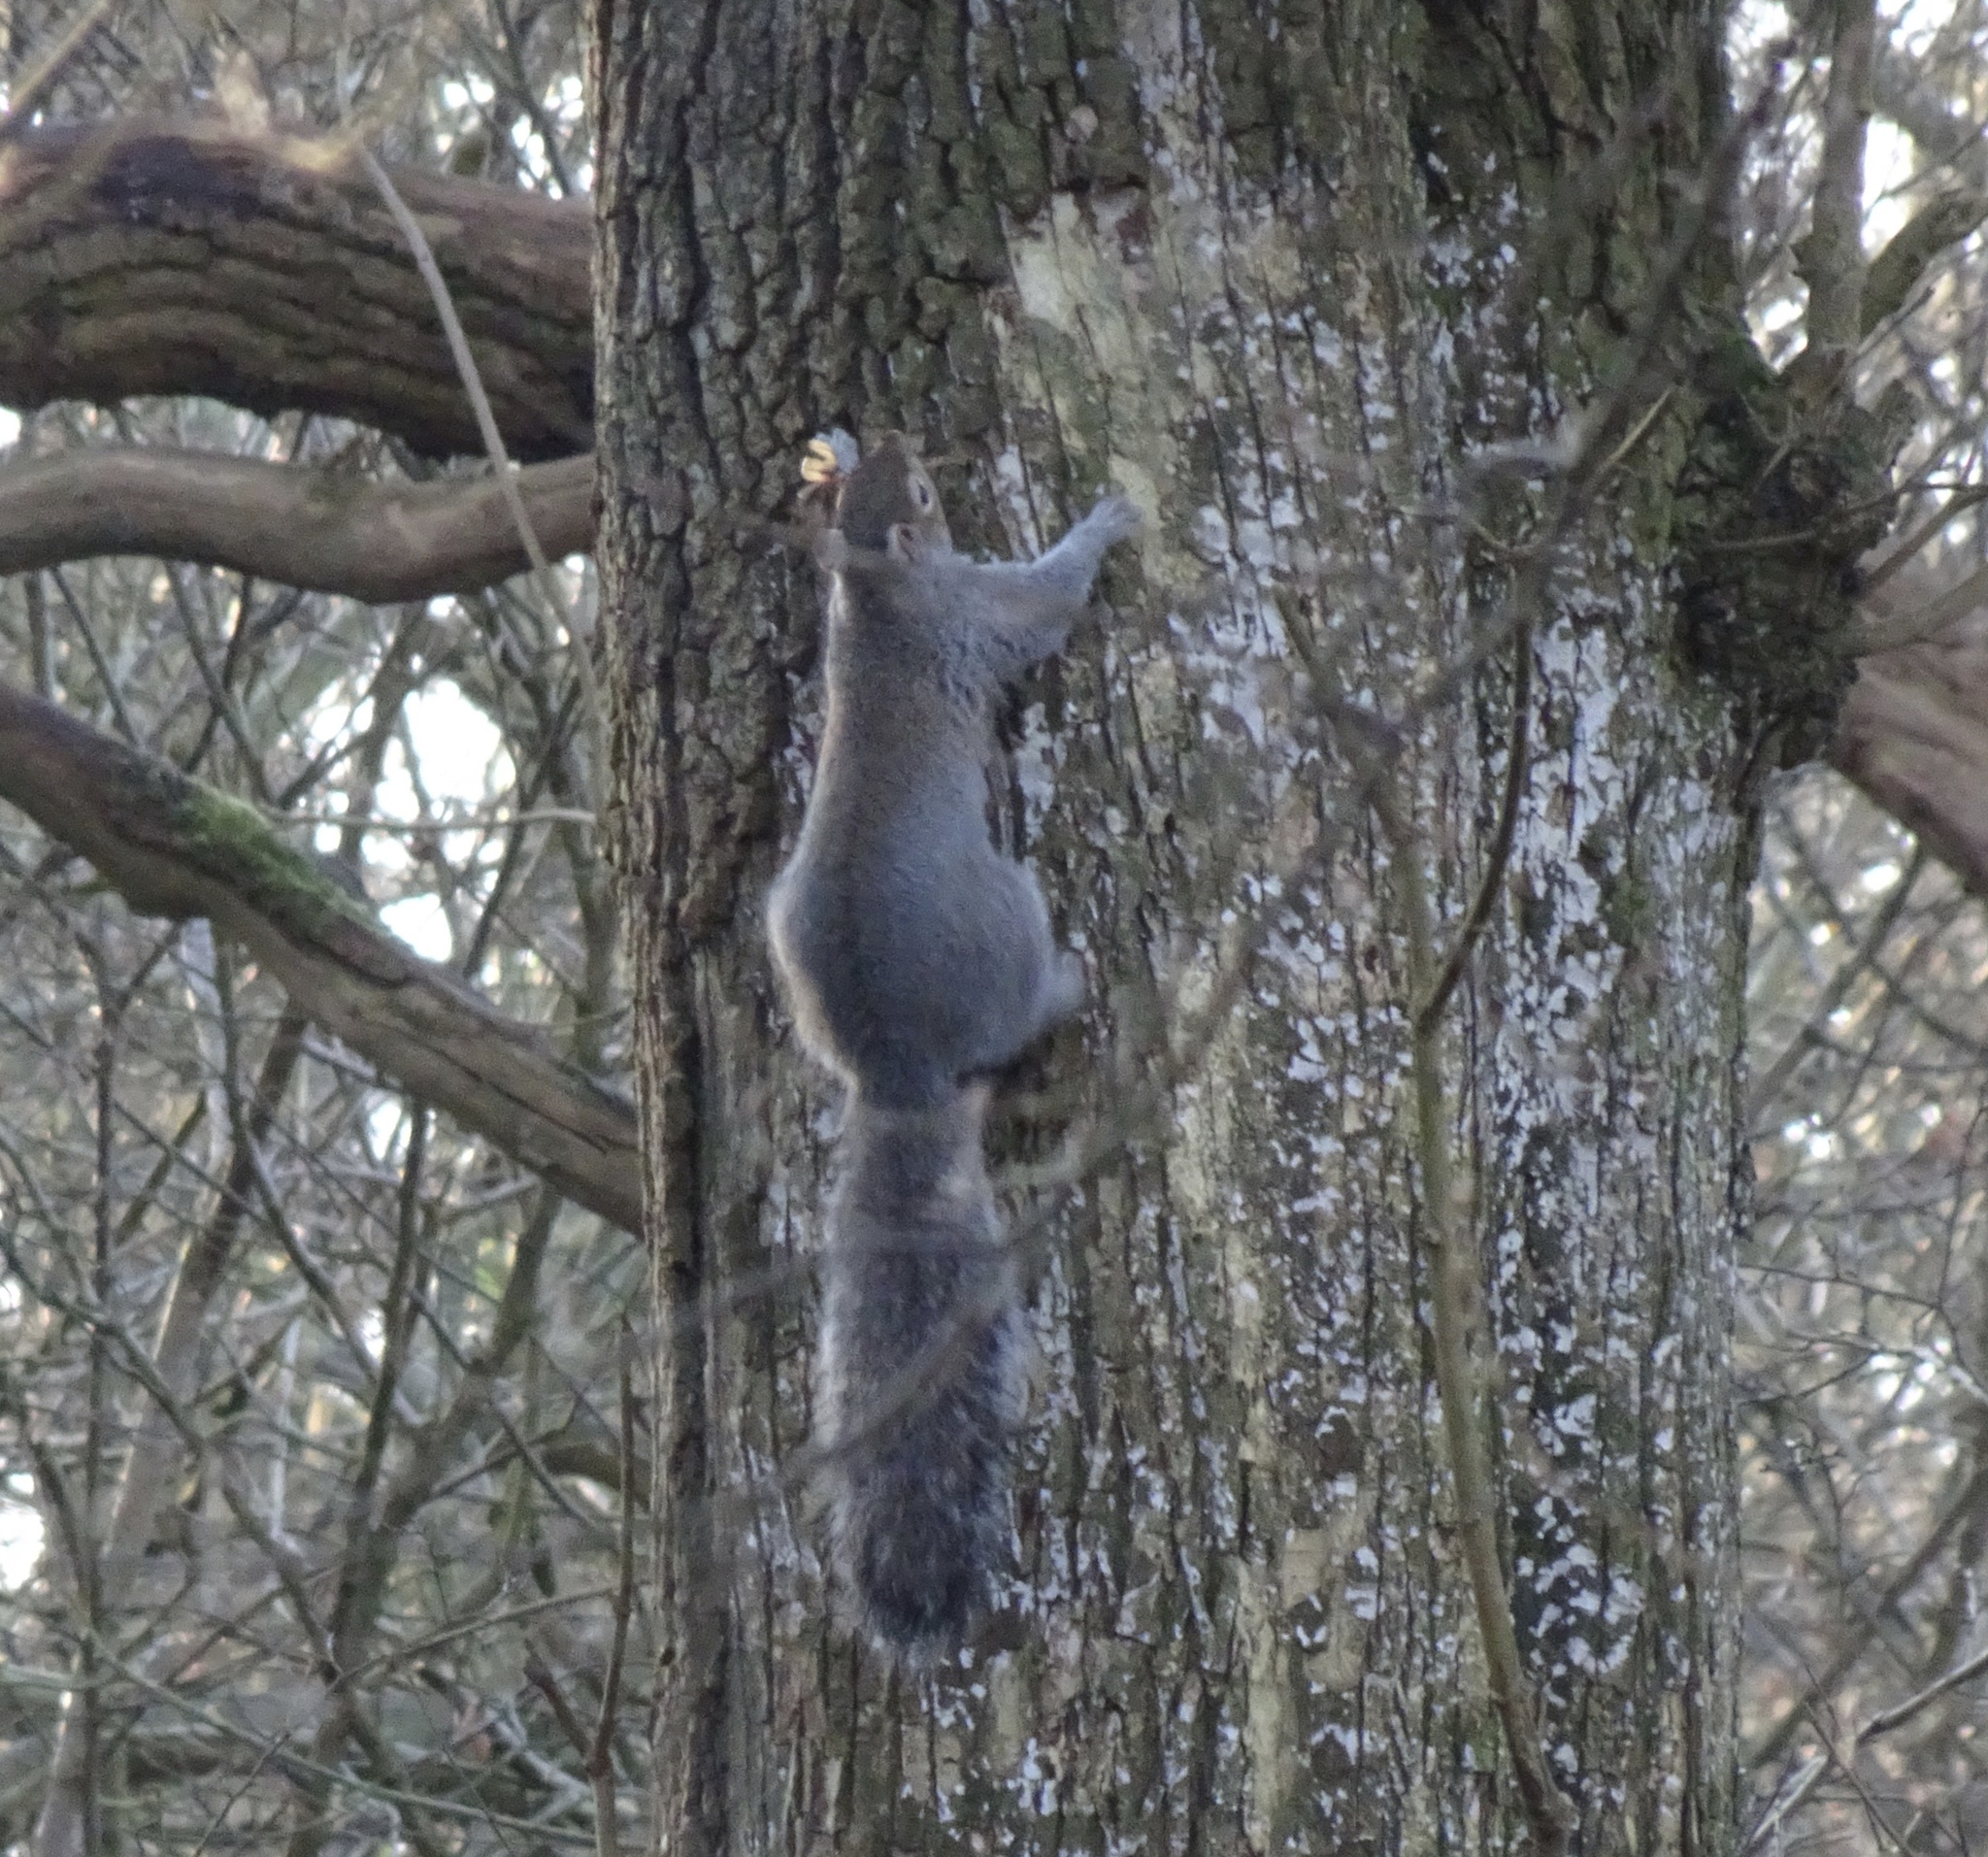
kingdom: Animalia
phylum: Chordata
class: Mammalia
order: Rodentia
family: Sciuridae
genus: Sciurus
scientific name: Sciurus carolinensis
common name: Eastern gray squirrel
